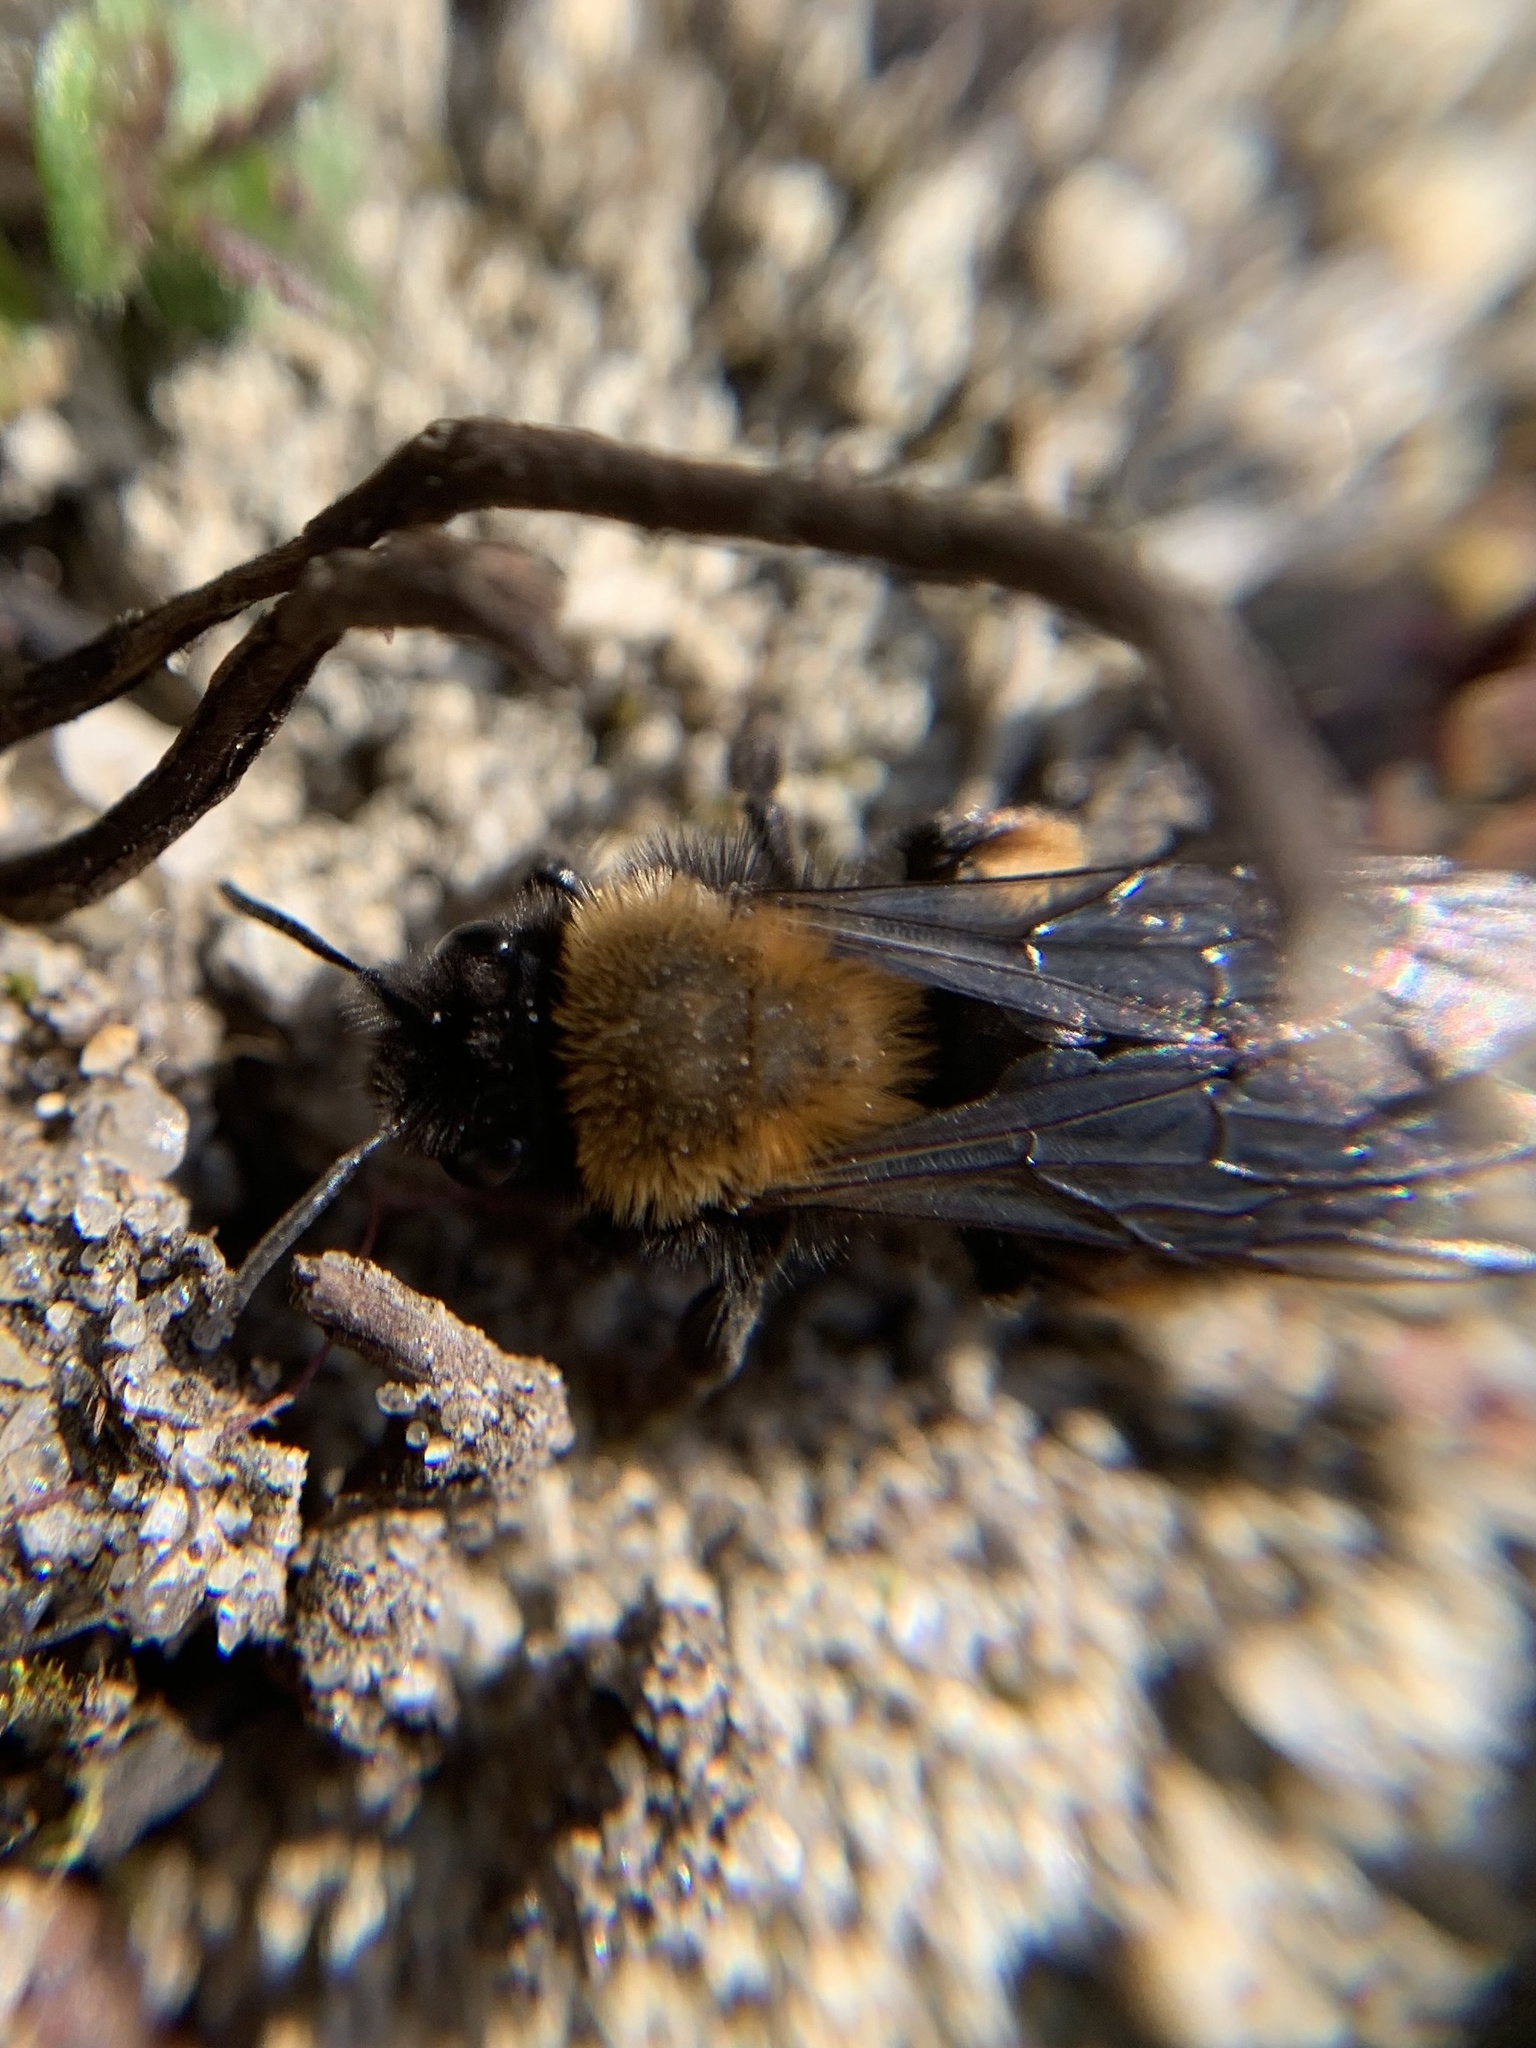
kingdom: Animalia
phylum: Arthropoda
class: Insecta
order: Hymenoptera
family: Andrenidae
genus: Andrena
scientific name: Andrena clarkella
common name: Clarke's mining bee
